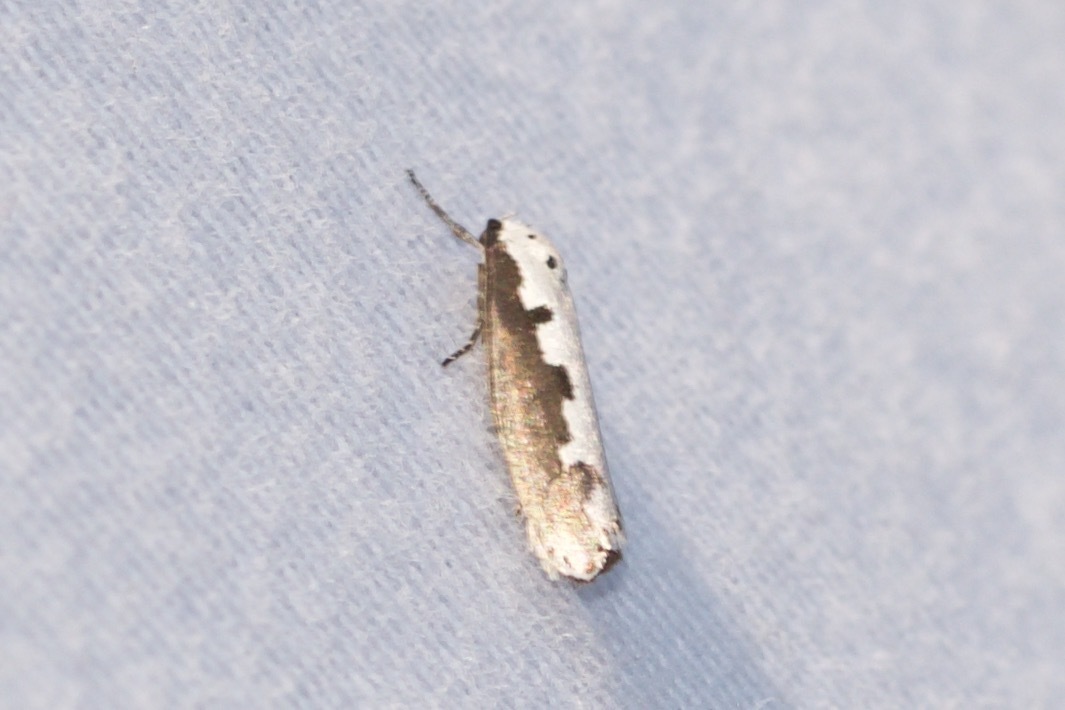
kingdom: Animalia
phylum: Arthropoda
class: Insecta
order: Lepidoptera
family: Ethmiidae
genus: Ethmia
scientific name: Ethmia bipunctella
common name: Bordered ermel
